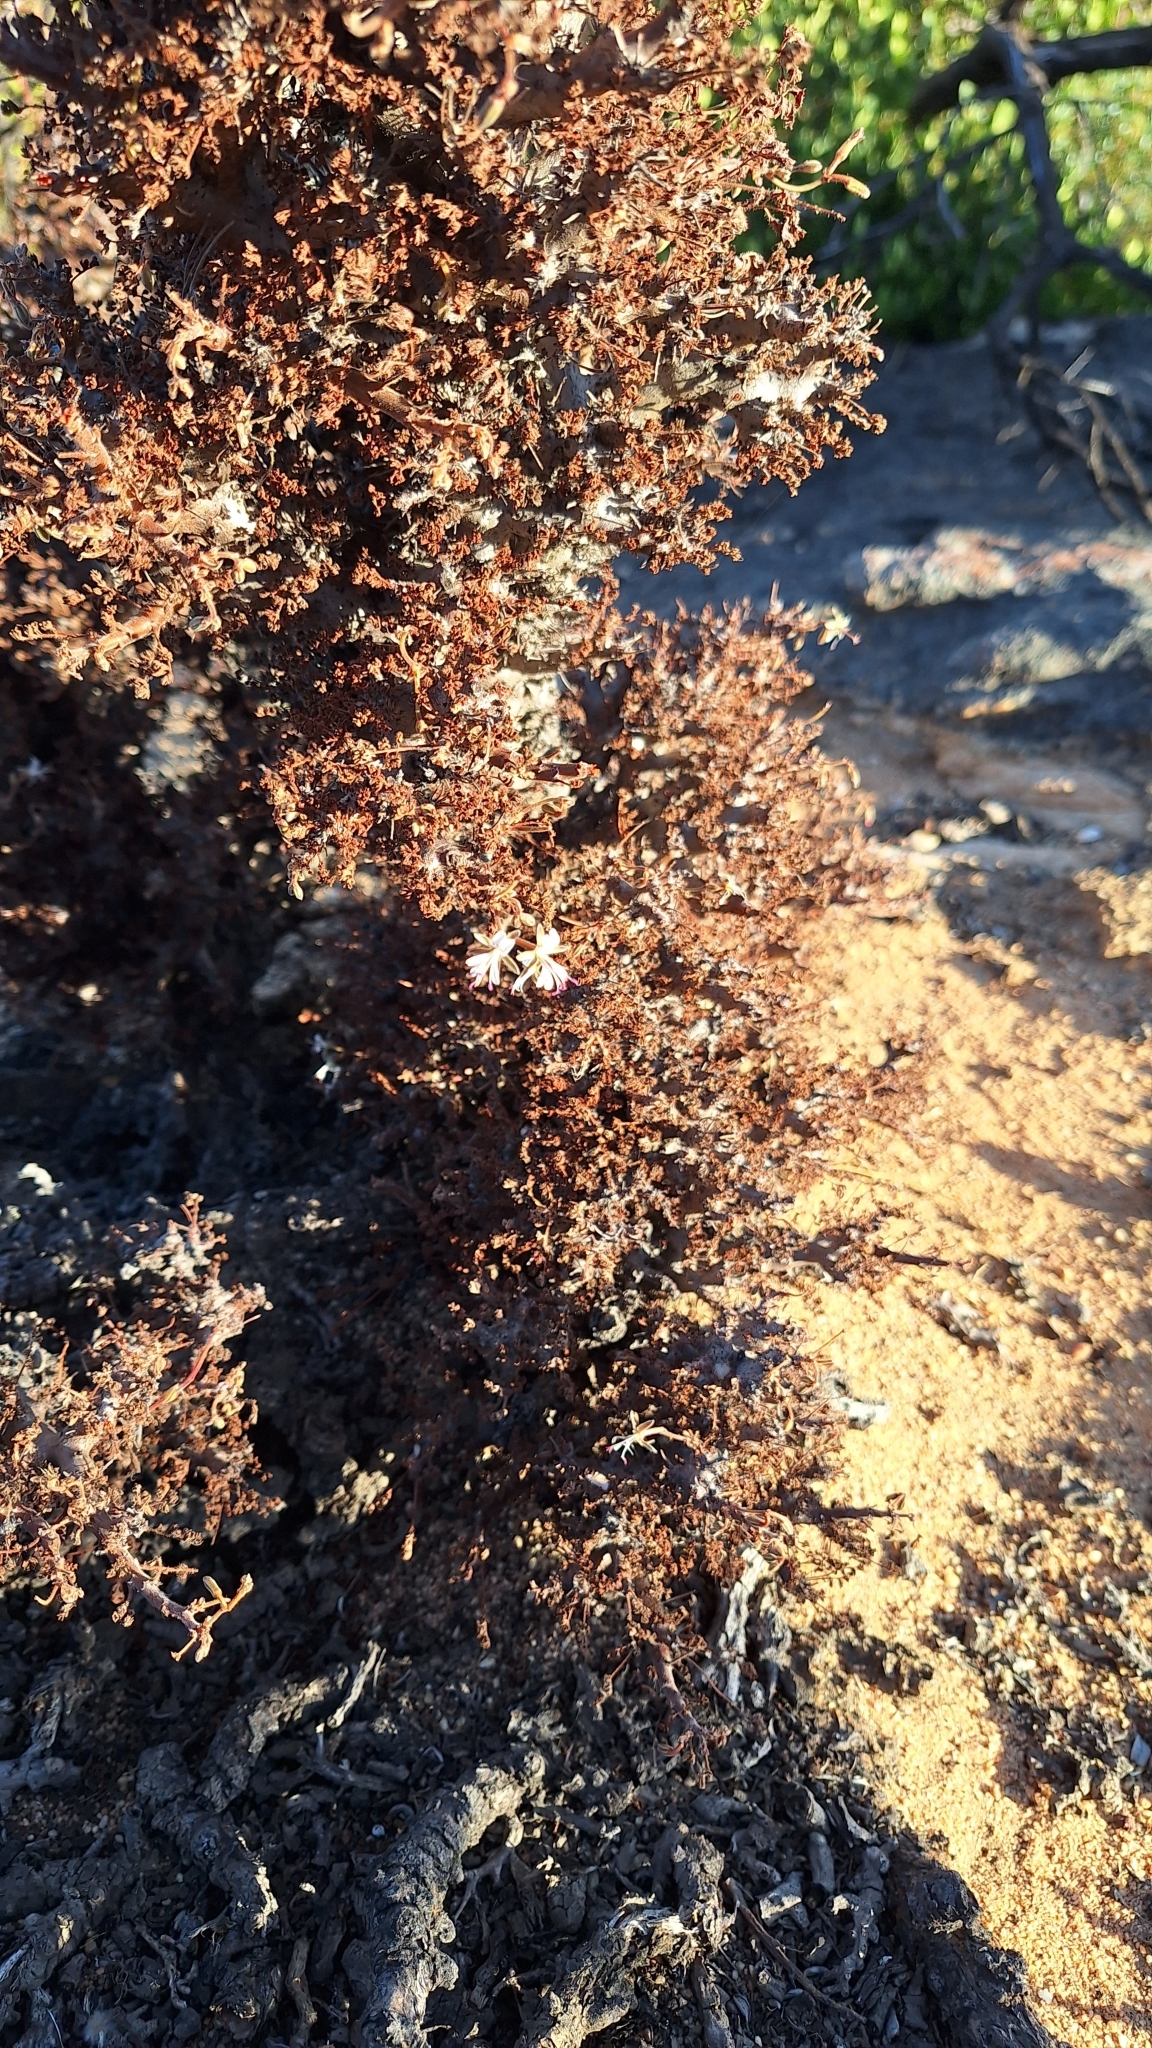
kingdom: Plantae
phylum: Tracheophyta
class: Magnoliopsida
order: Geraniales
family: Geraniaceae
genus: Pelargonium
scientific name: Pelargonium alternans
